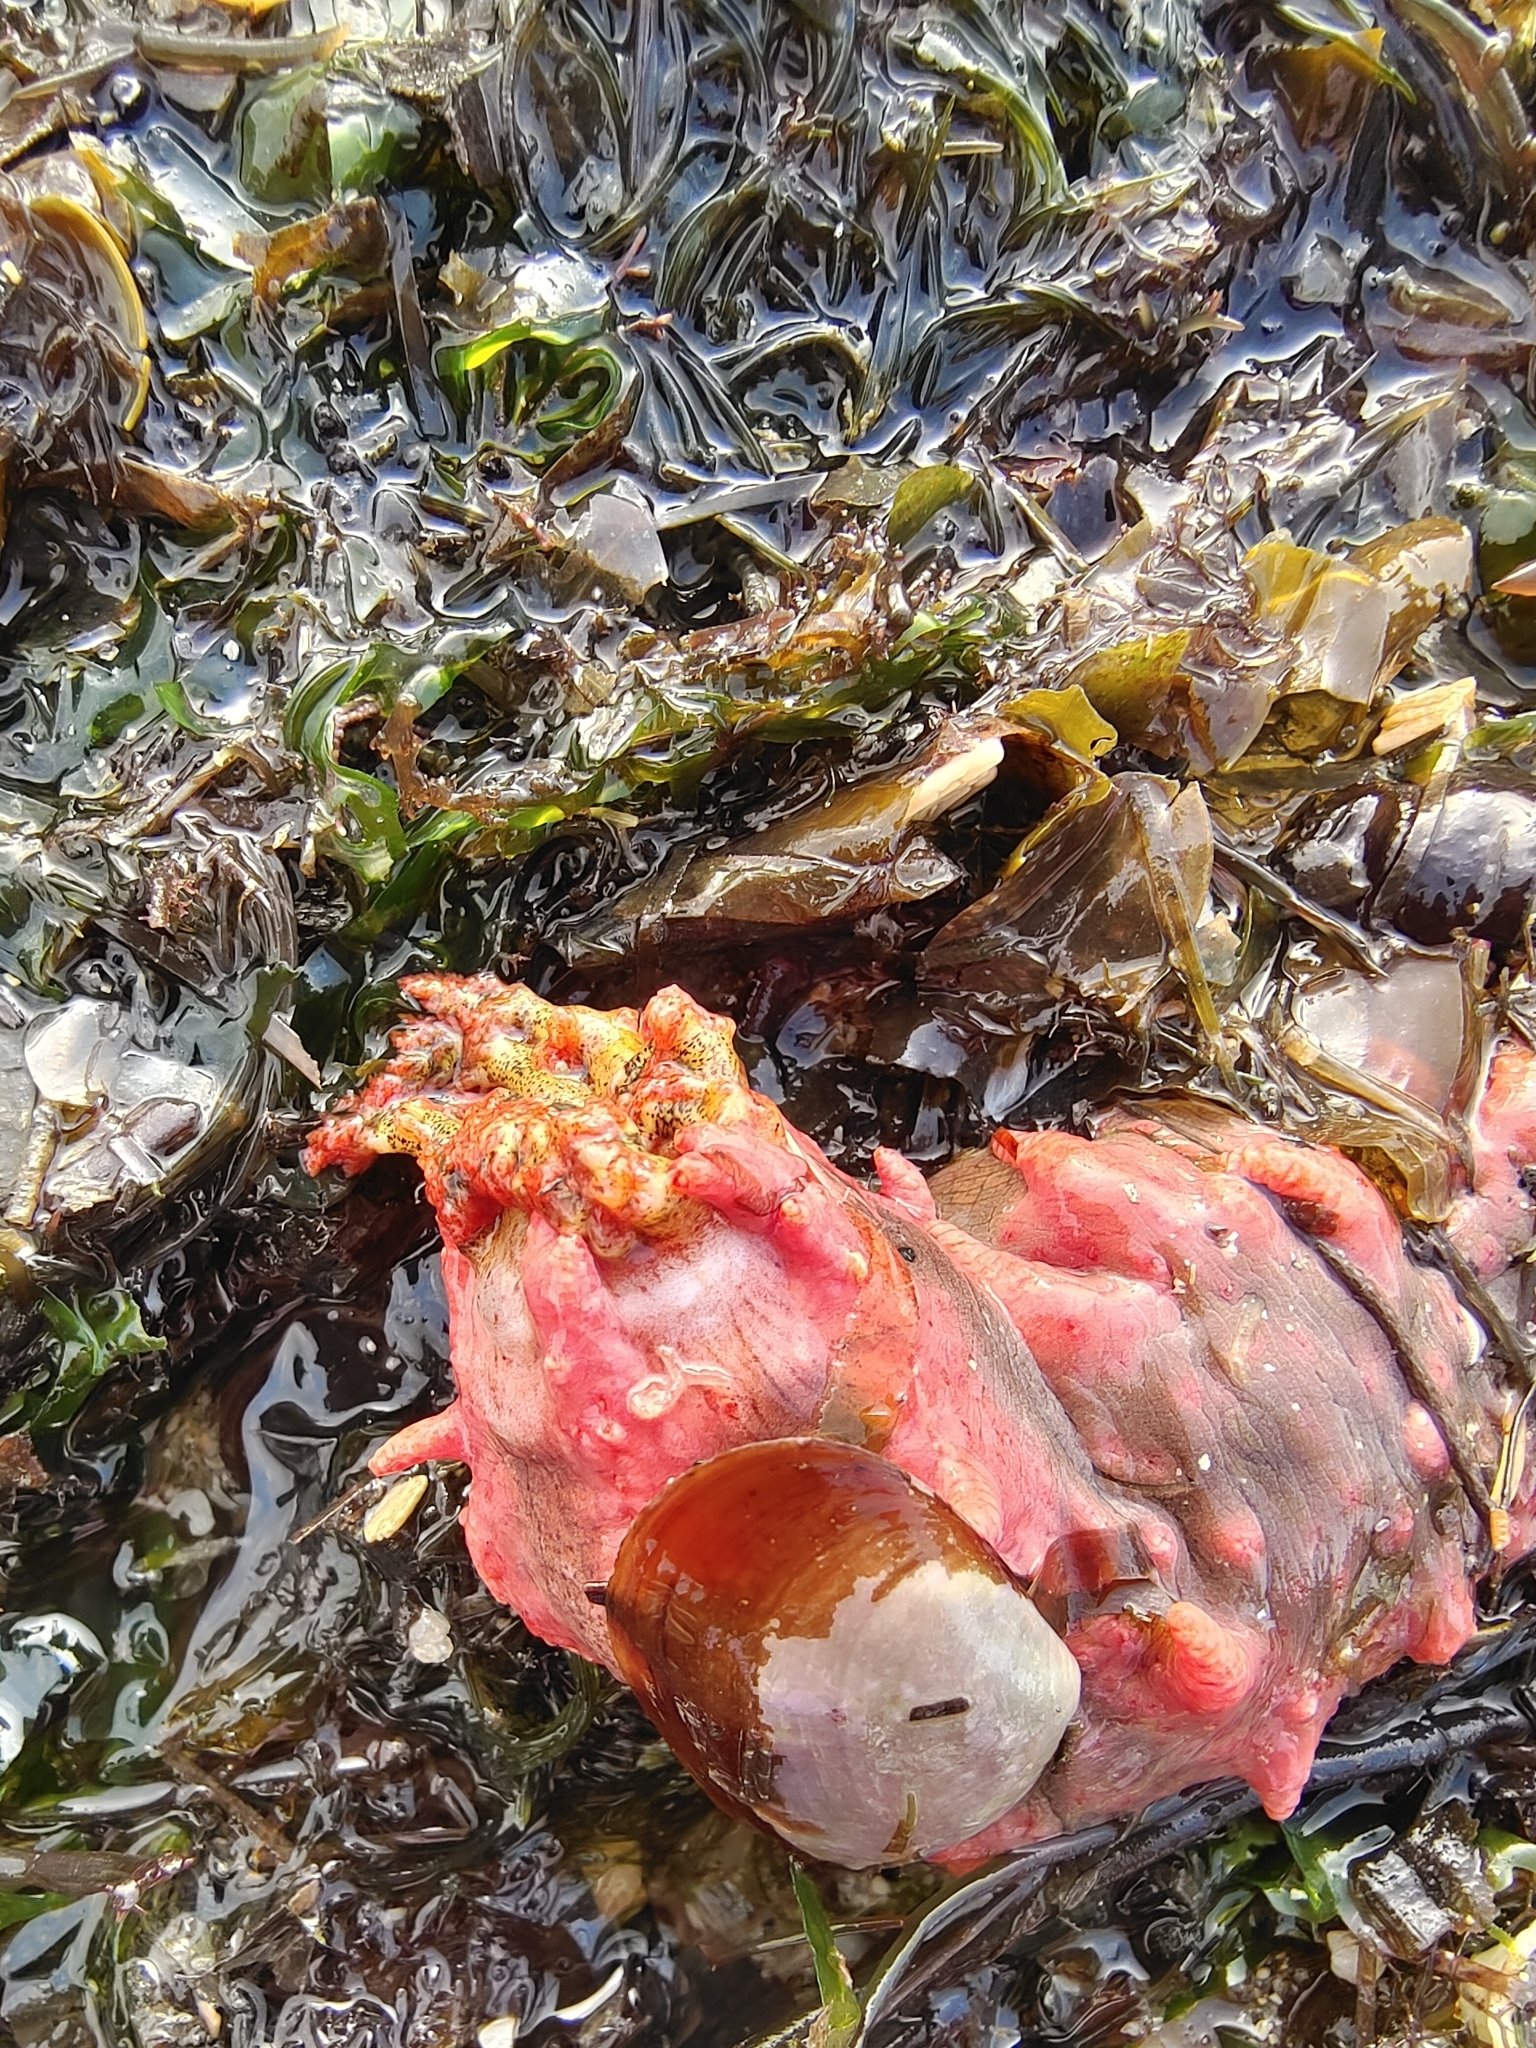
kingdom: Animalia
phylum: Echinodermata
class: Holothuroidea
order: Dendrochirotida
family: Cucumariidae
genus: Colochirus
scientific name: Colochirus quadrangularis
